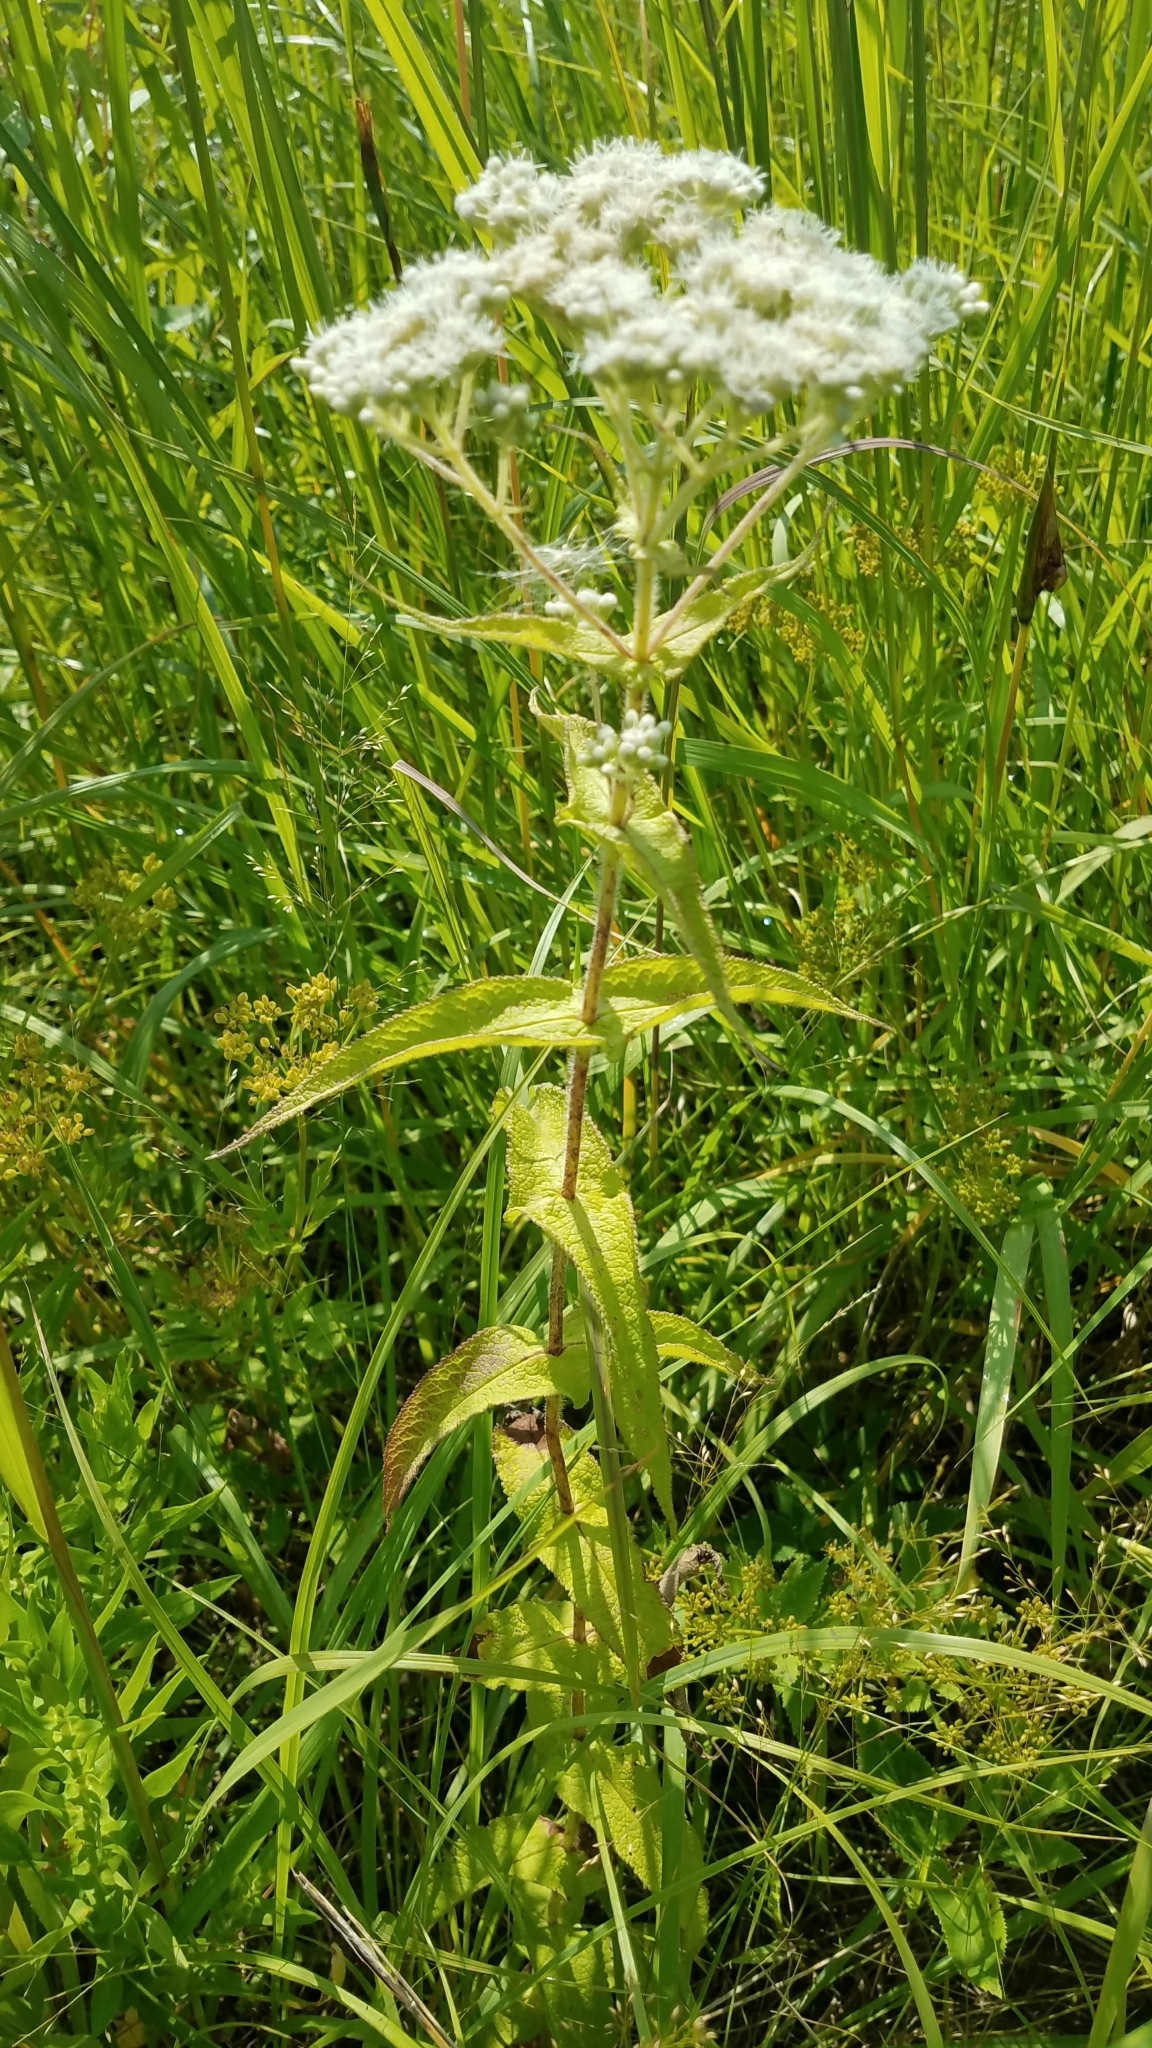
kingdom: Plantae
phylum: Tracheophyta
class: Magnoliopsida
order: Asterales
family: Asteraceae
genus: Eupatorium
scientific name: Eupatorium perfoliatum
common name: Boneset
